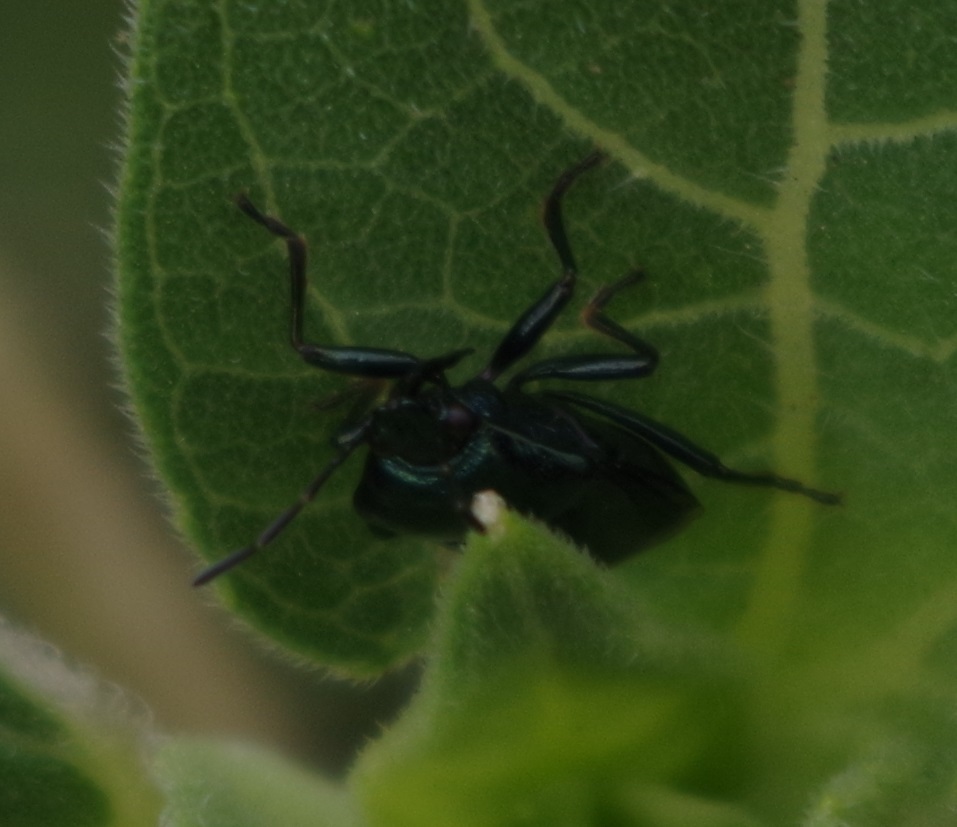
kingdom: Animalia
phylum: Arthropoda
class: Insecta
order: Hemiptera
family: Pentatomidae
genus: Zicrona
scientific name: Zicrona caerulea
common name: Blue shieldbug
